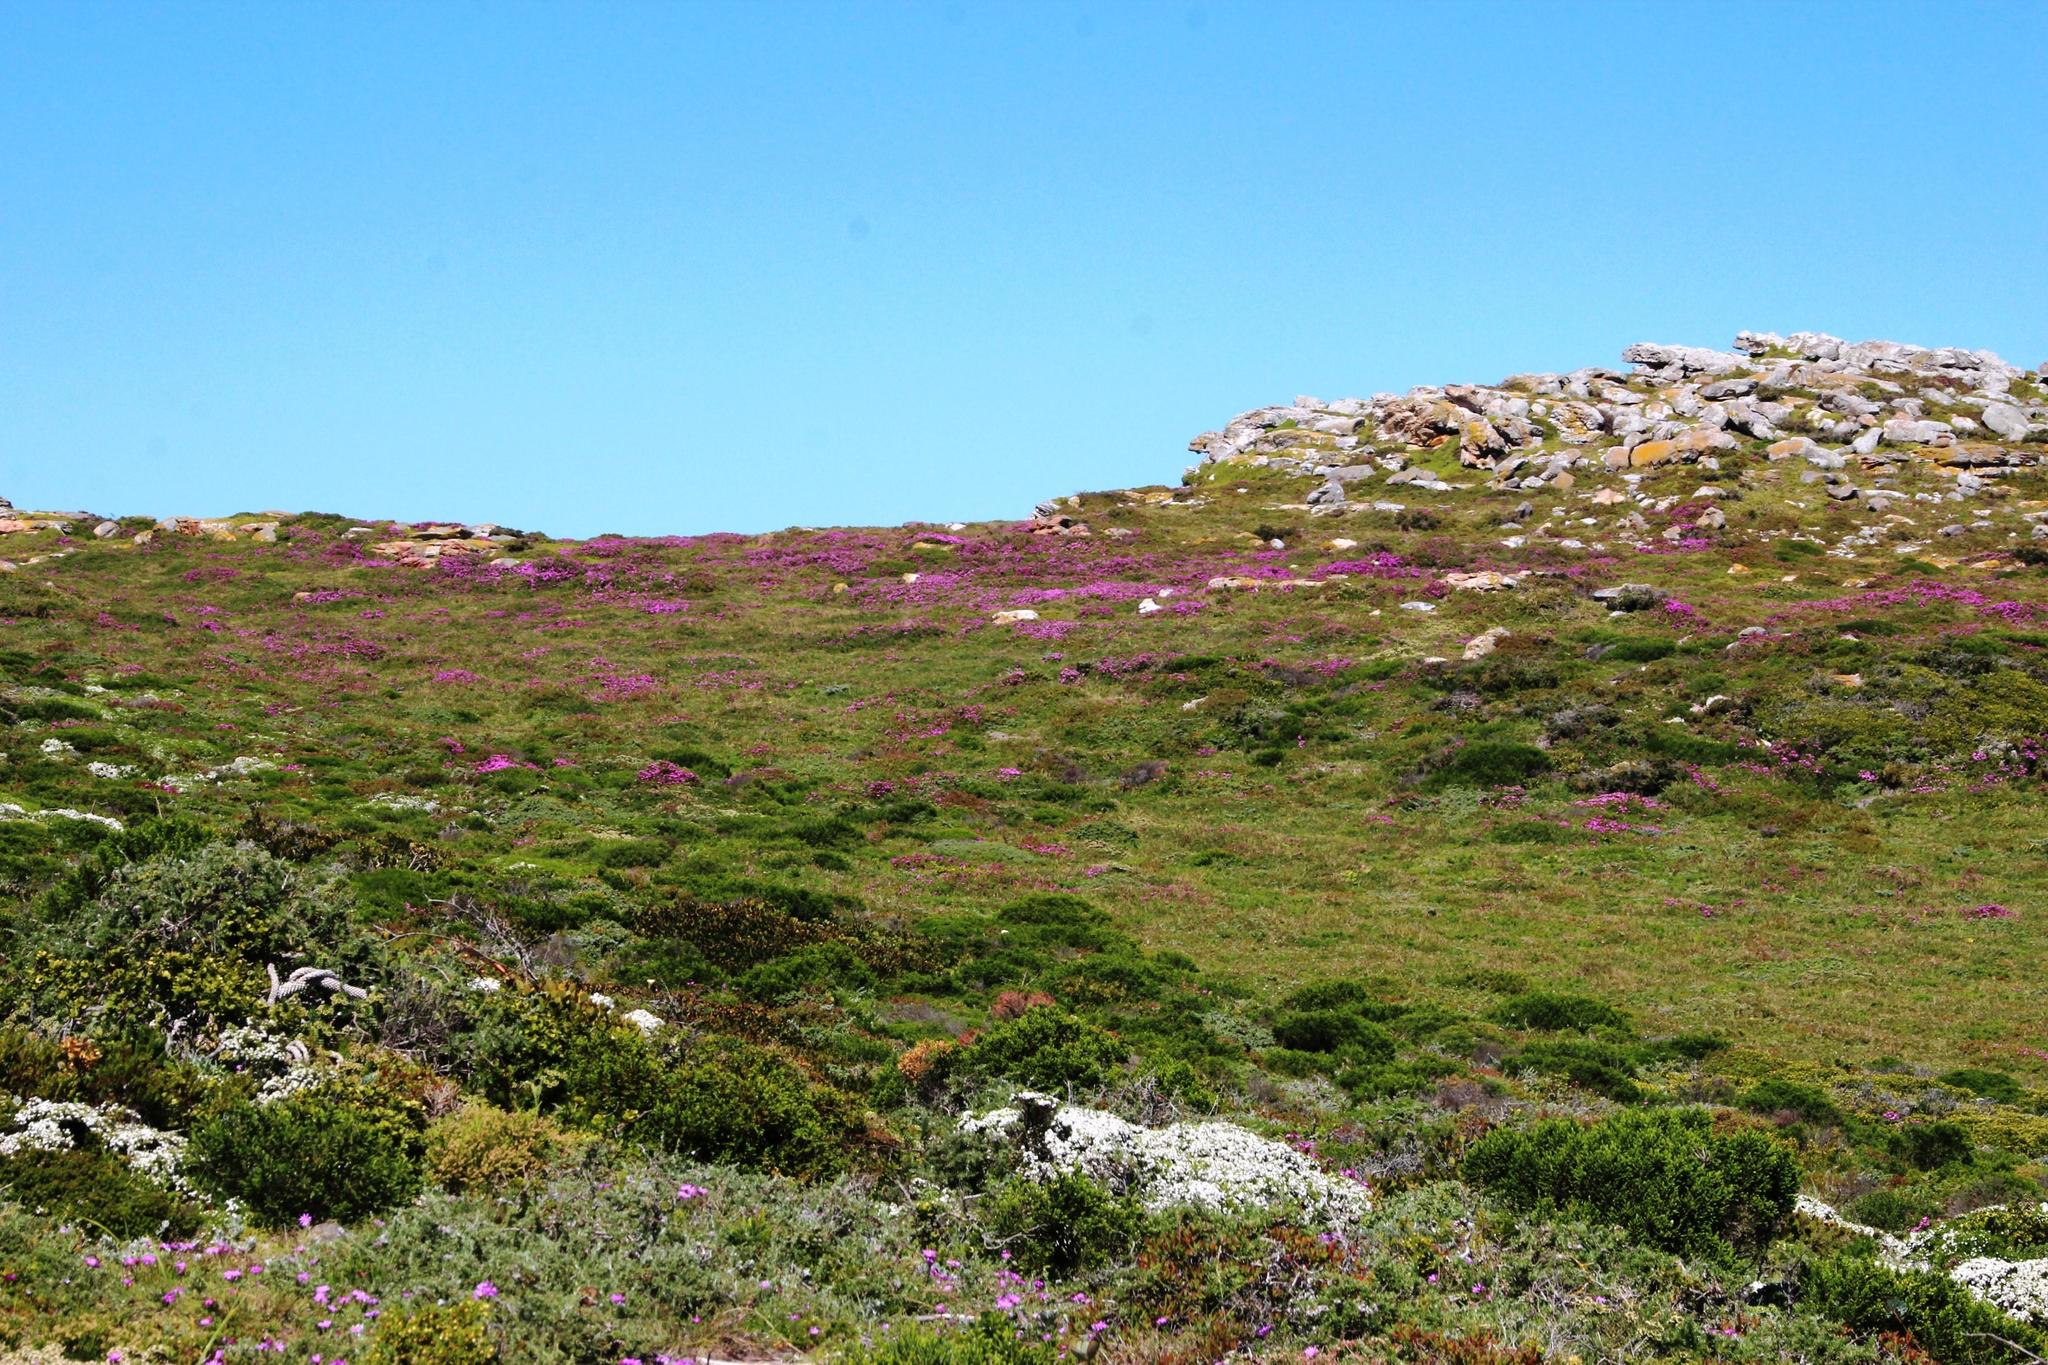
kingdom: Plantae
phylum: Tracheophyta
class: Magnoliopsida
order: Caryophyllales
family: Aizoaceae
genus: Ruschia
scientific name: Ruschia macowanii
